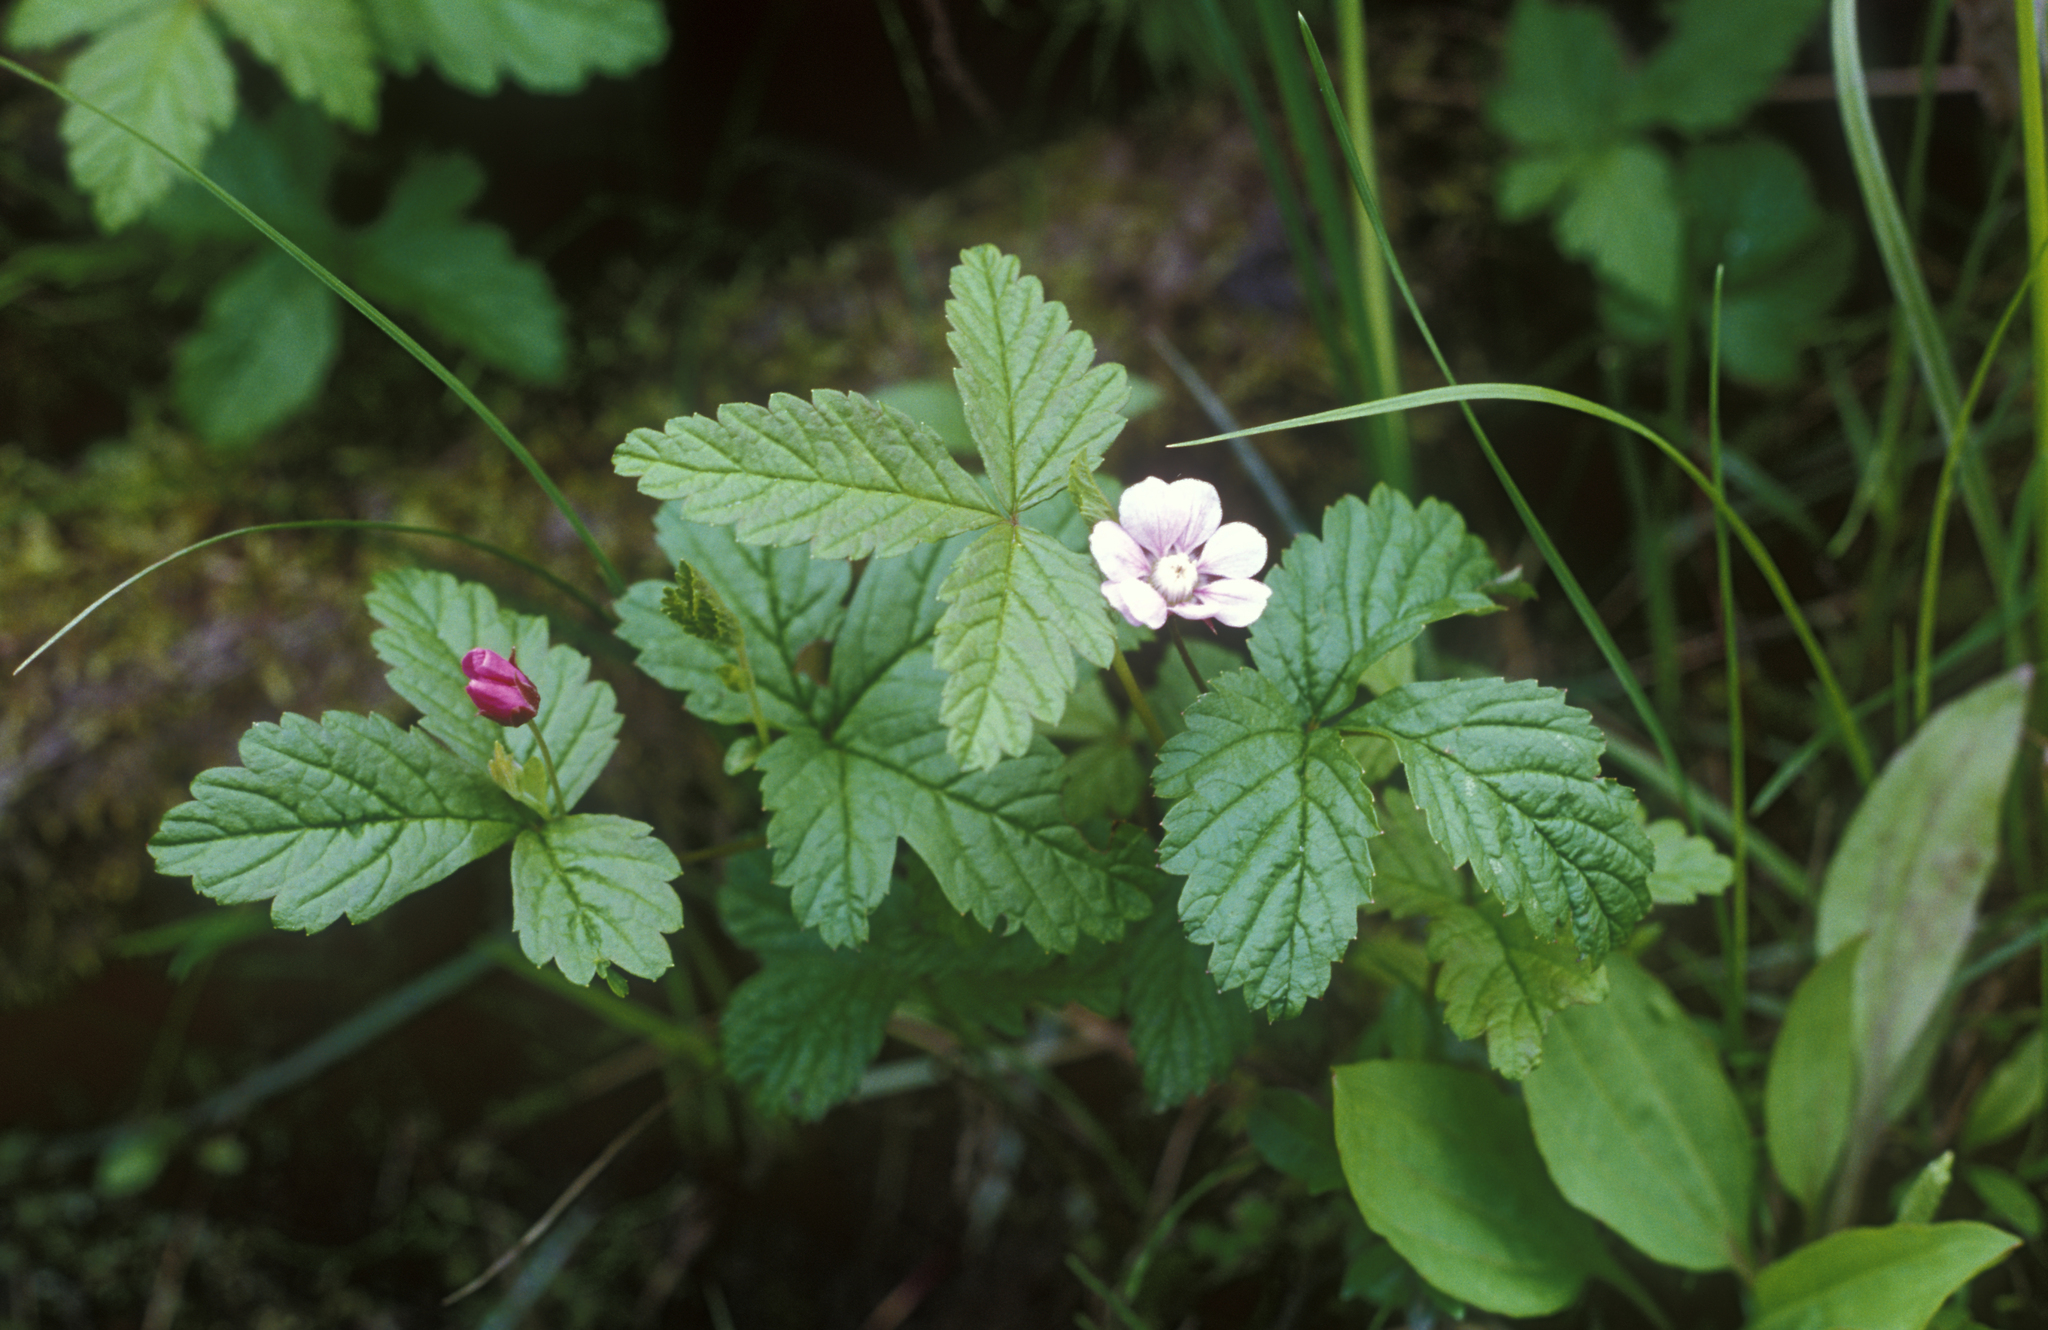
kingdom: Plantae
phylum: Tracheophyta
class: Magnoliopsida
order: Rosales
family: Rosaceae
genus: Rubus
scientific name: Rubus arcticus
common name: Arctic bramble
